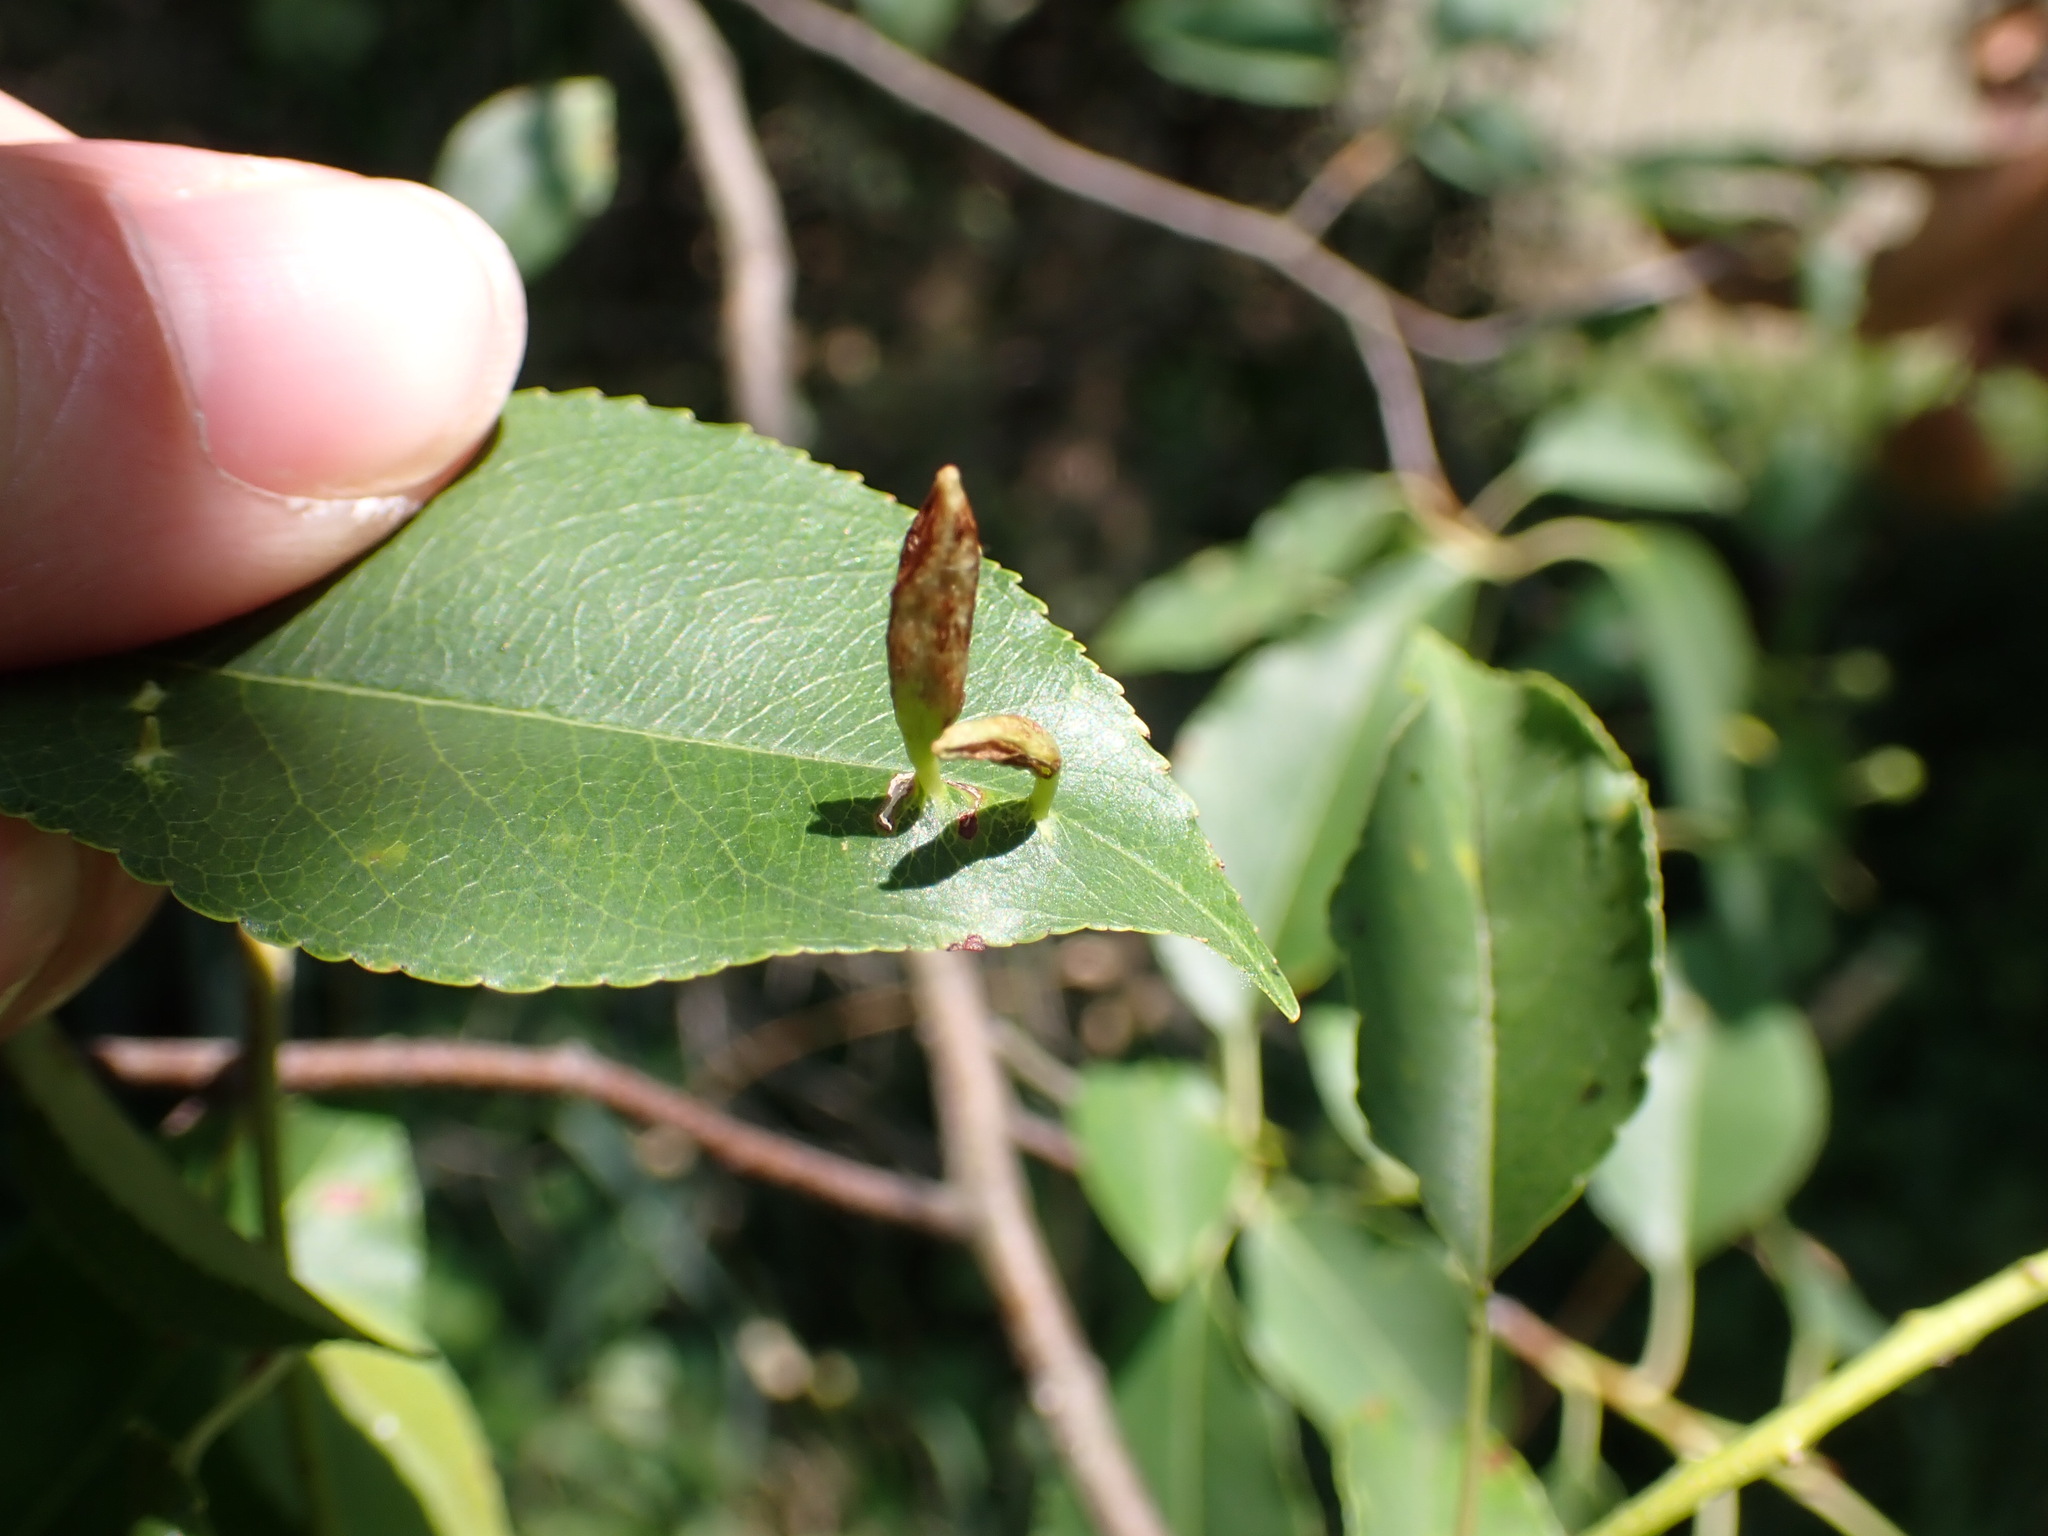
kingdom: Animalia
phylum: Arthropoda
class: Arachnida
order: Trombidiformes
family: Eriophyidae
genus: Eriophyes
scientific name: Eriophyes
